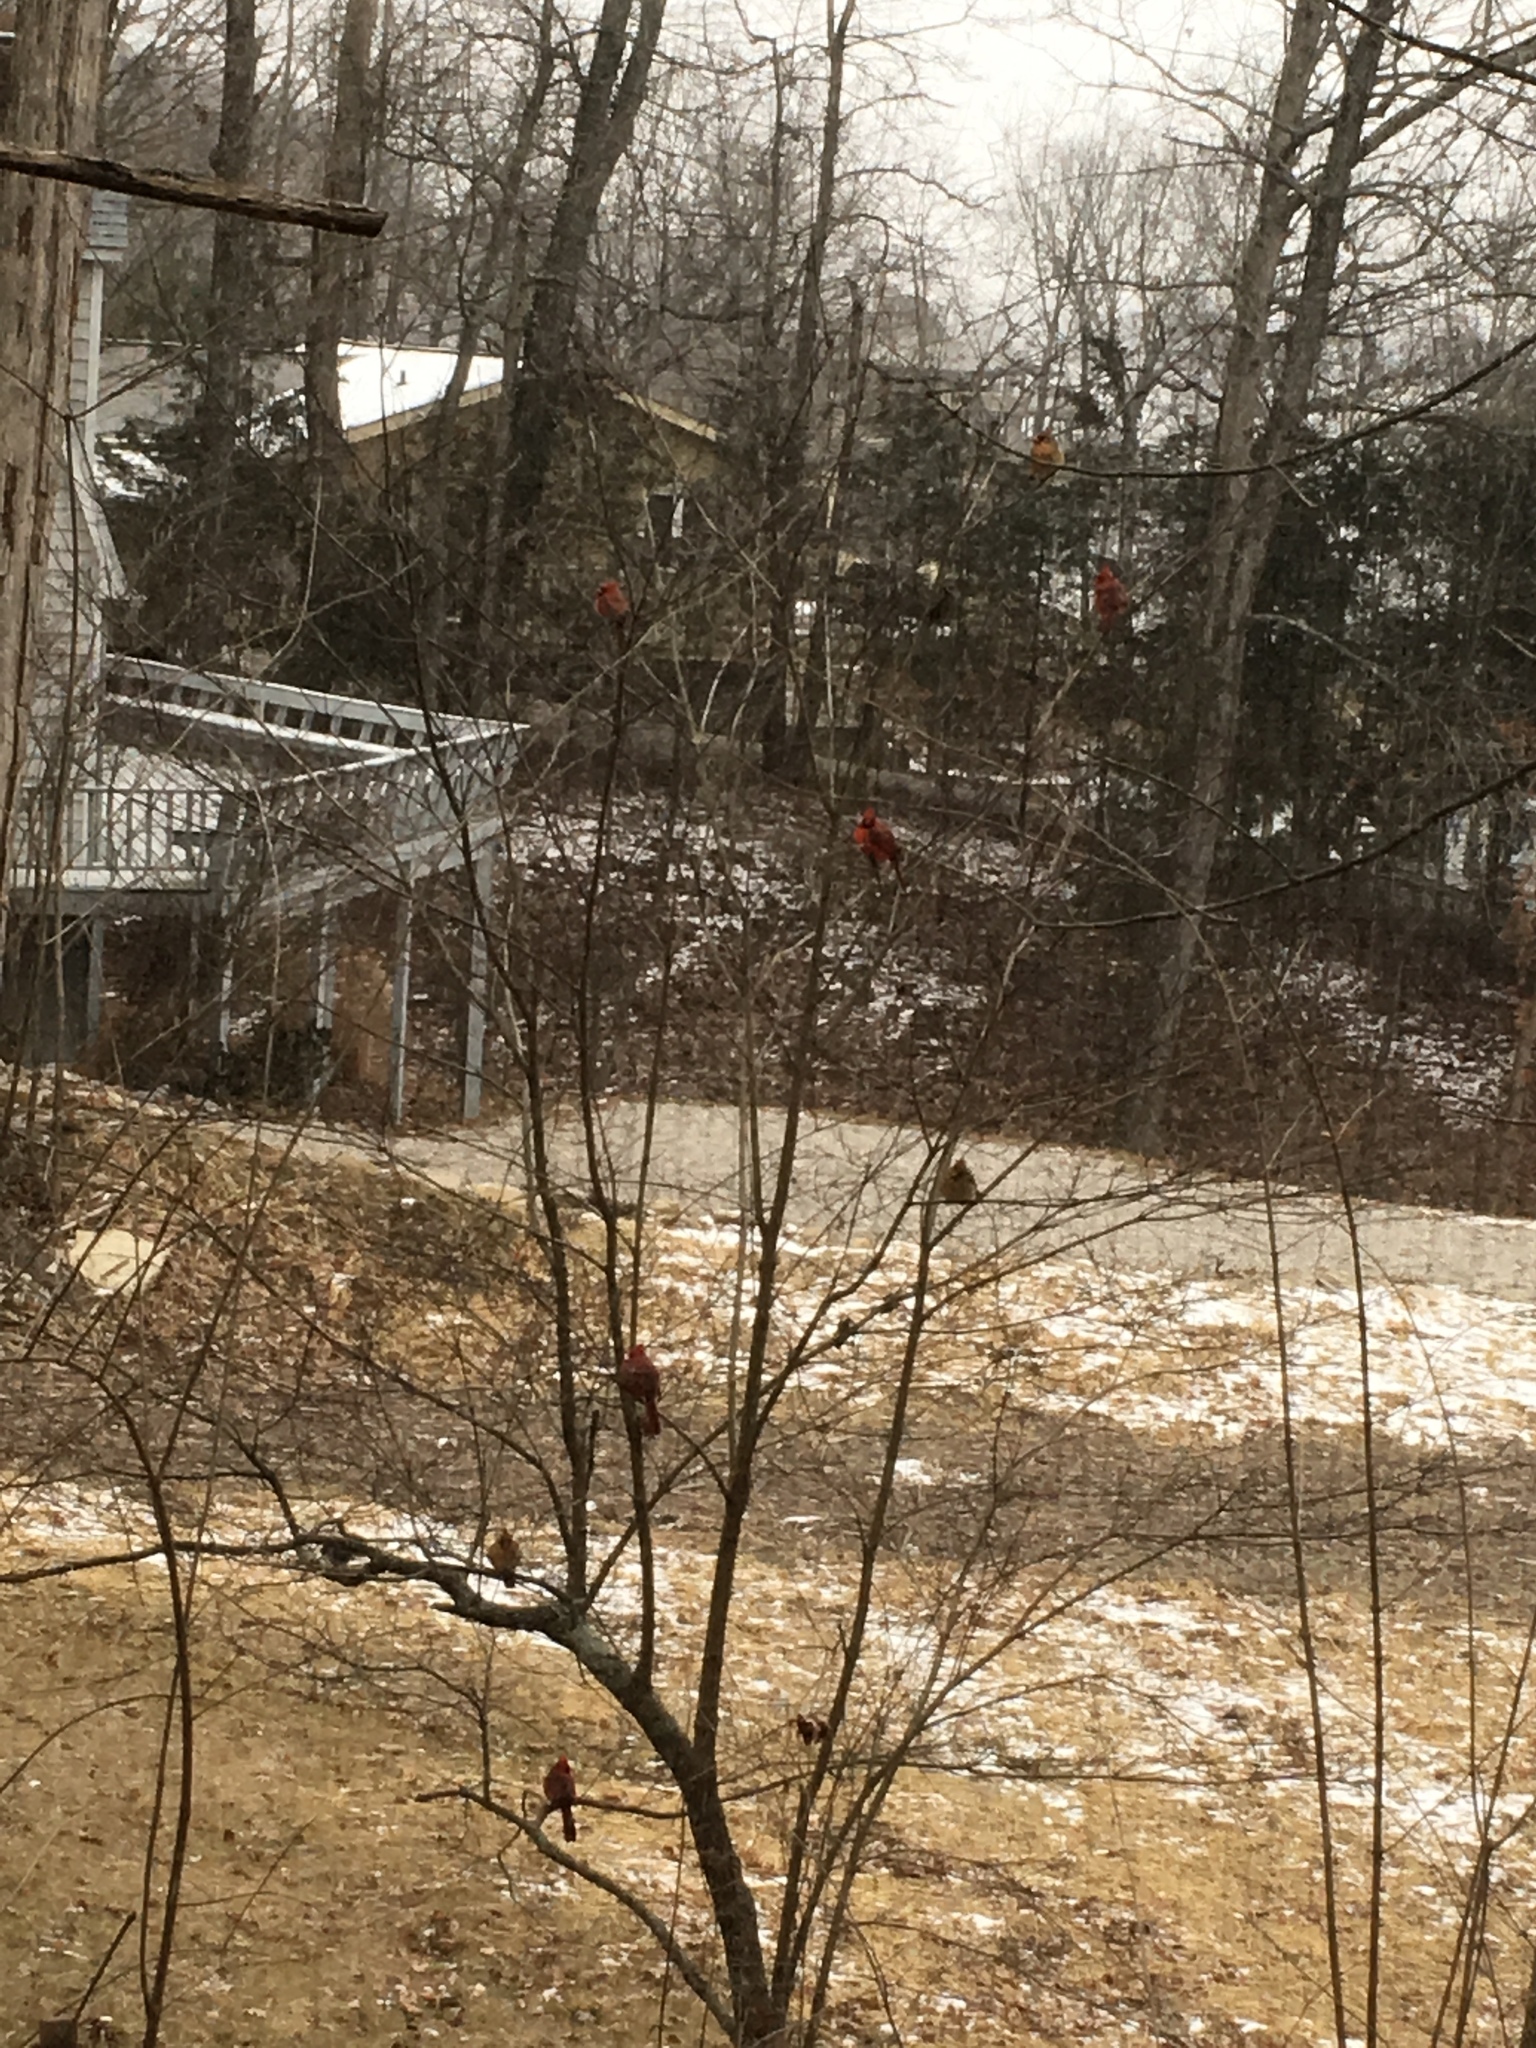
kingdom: Animalia
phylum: Chordata
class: Aves
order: Passeriformes
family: Cardinalidae
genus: Cardinalis
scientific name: Cardinalis cardinalis
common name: Northern cardinal
